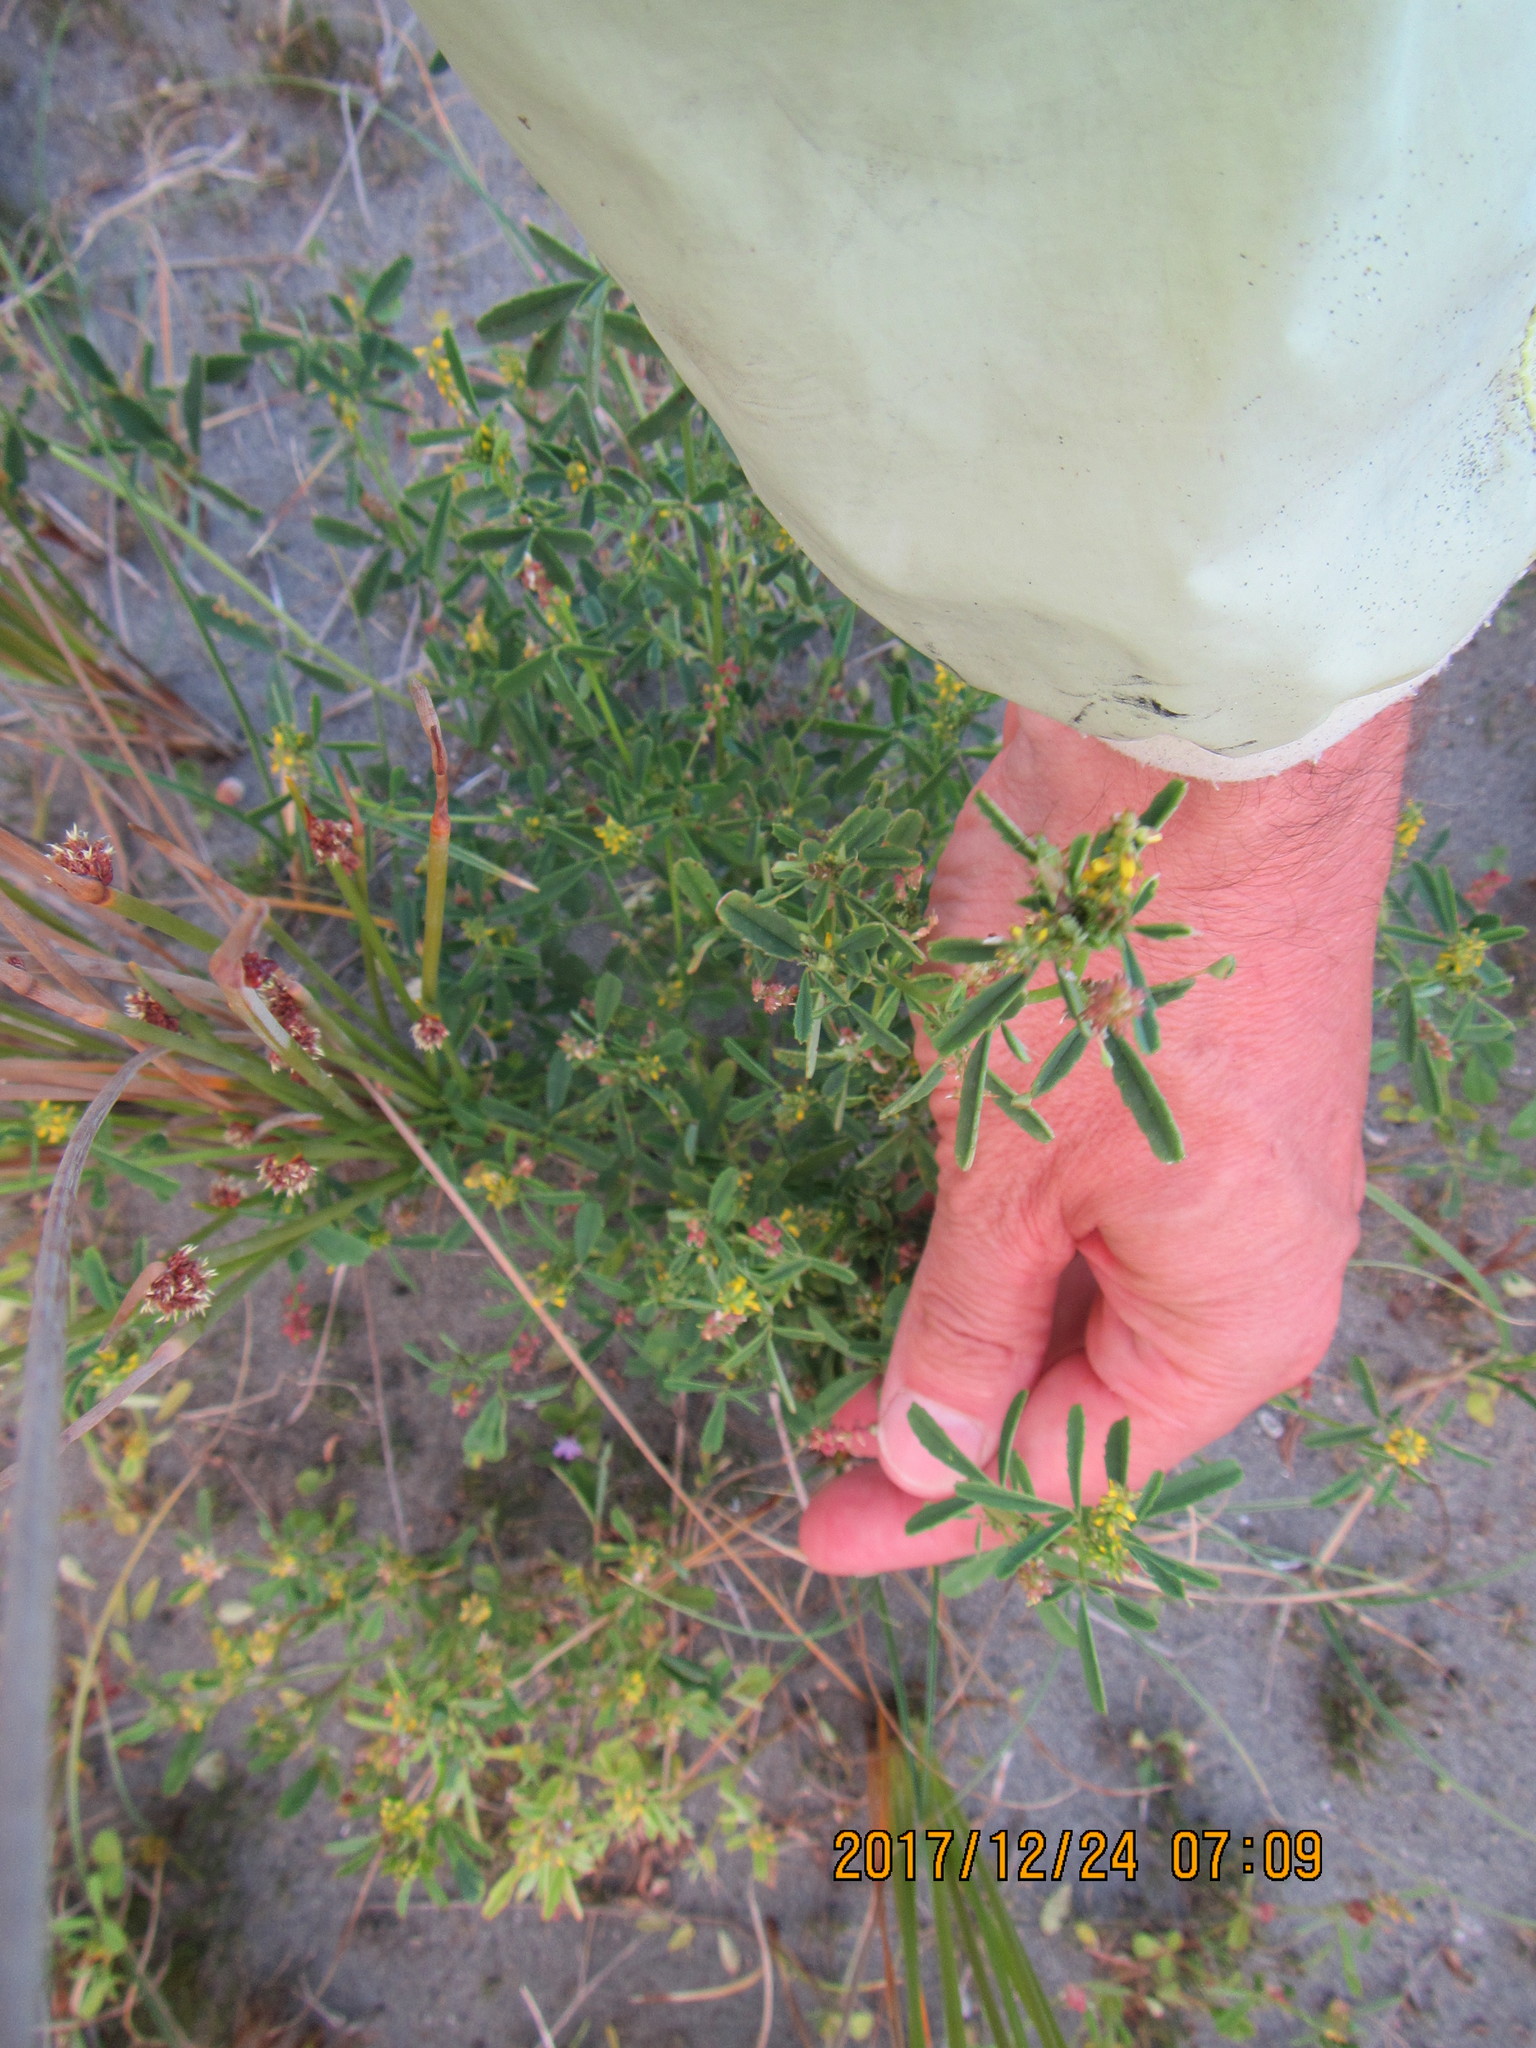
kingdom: Plantae
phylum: Tracheophyta
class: Magnoliopsida
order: Fabales
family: Fabaceae
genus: Melilotus
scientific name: Melilotus indicus
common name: Small melilot
